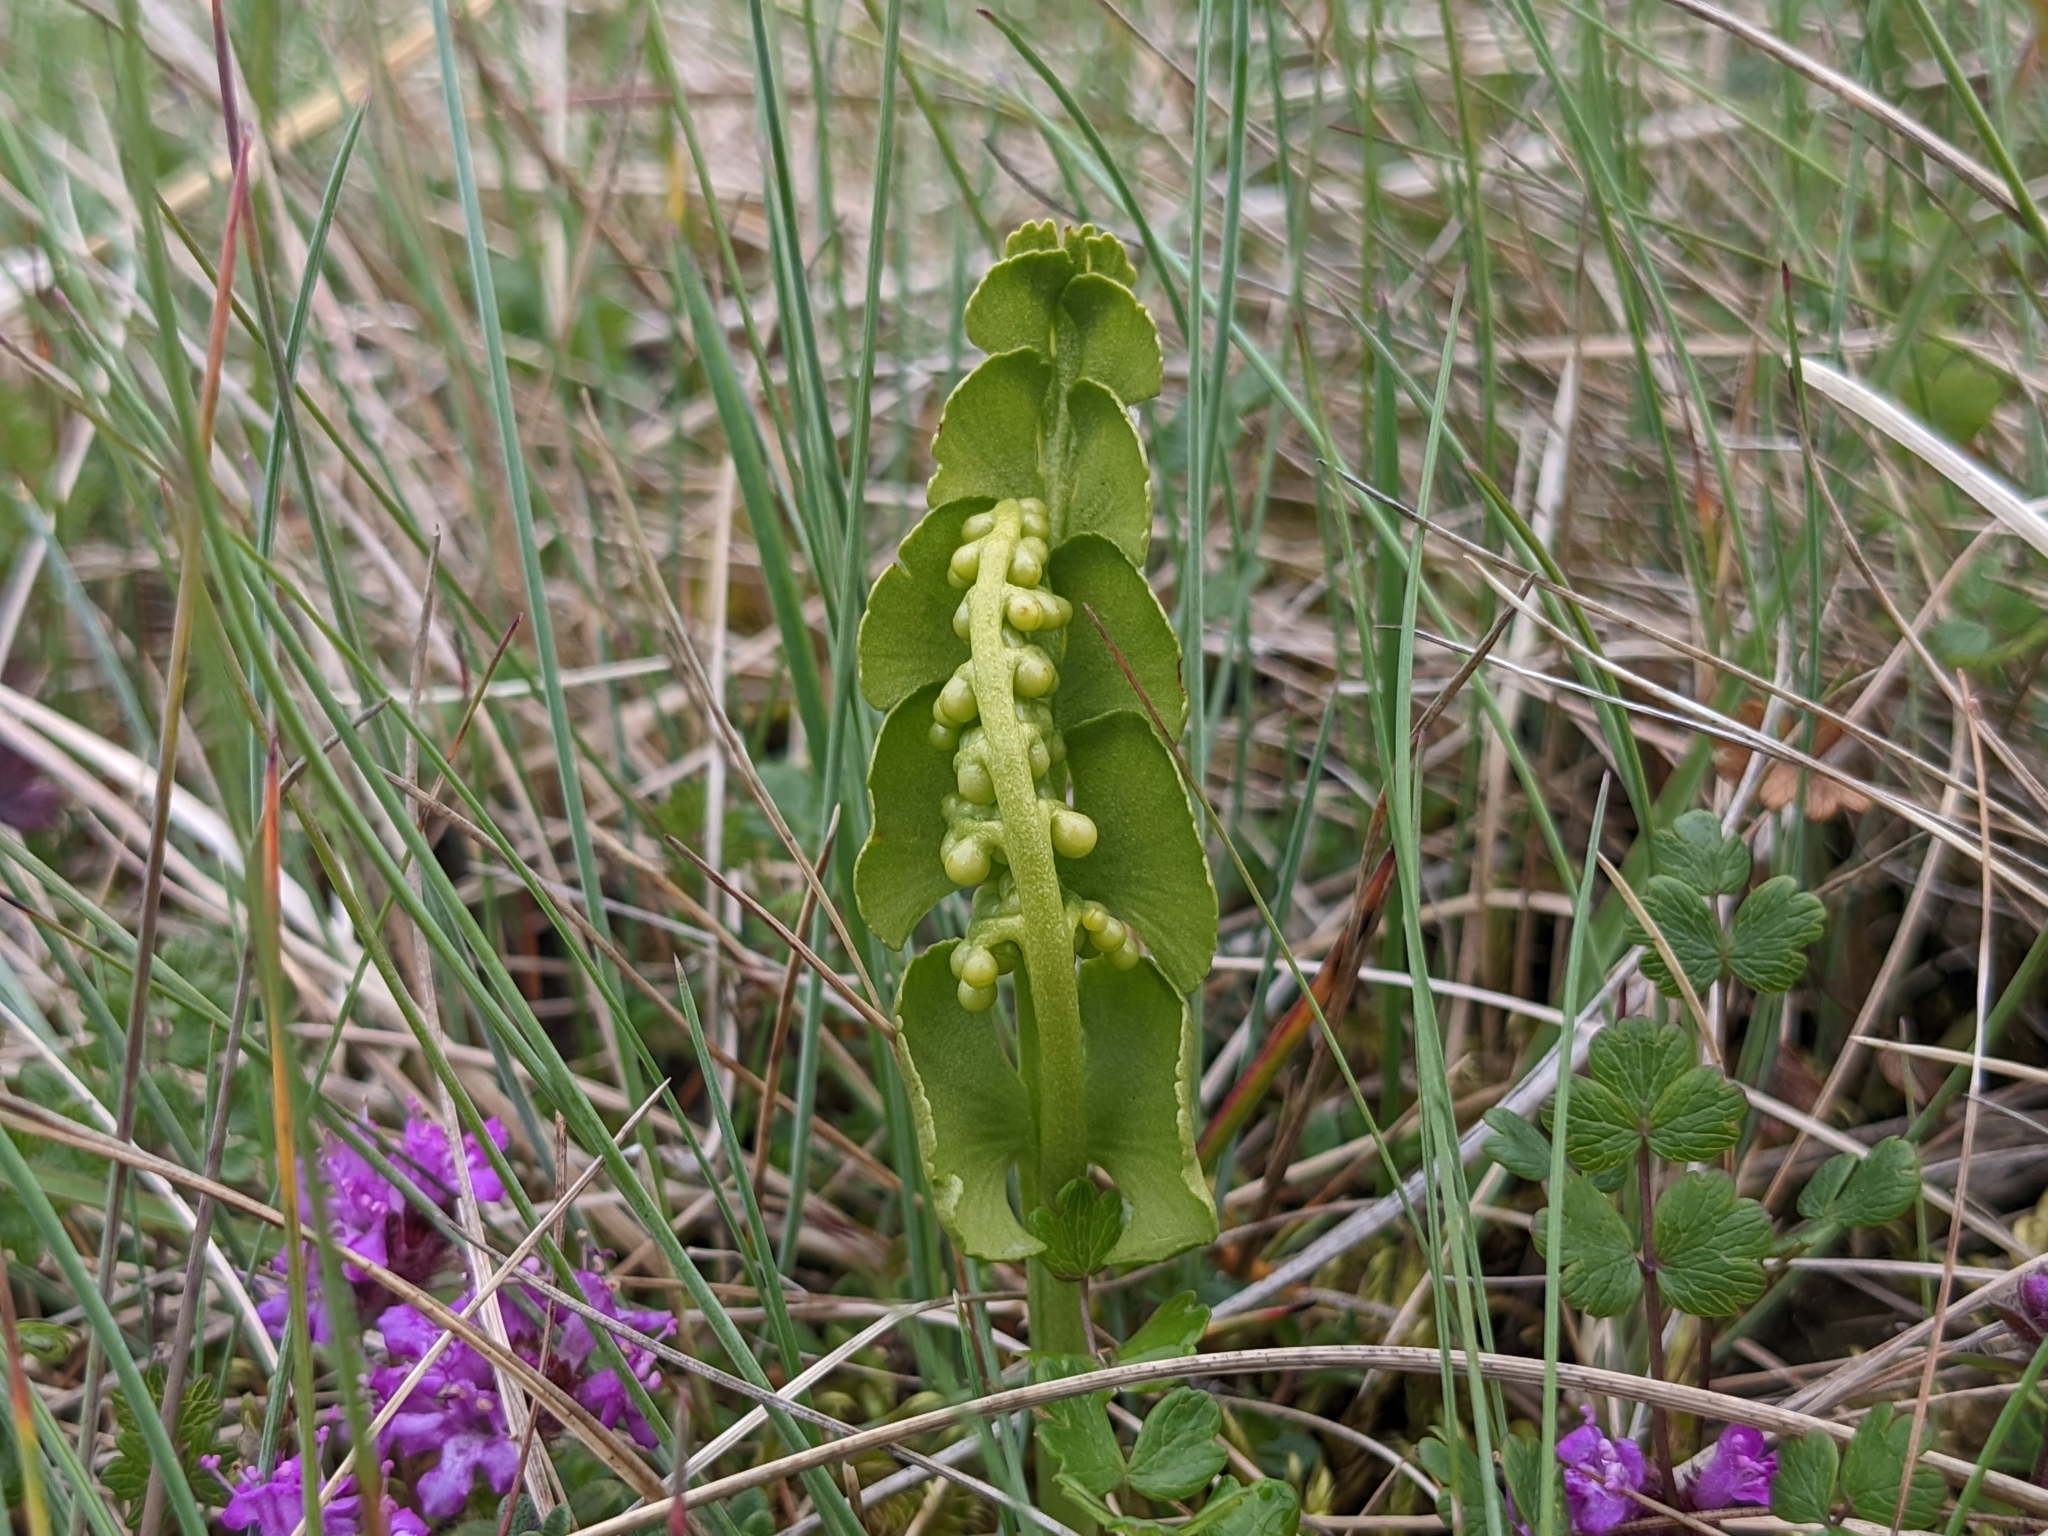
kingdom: Plantae
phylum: Tracheophyta
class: Polypodiopsida
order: Ophioglossales
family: Ophioglossaceae
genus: Botrychium
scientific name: Botrychium lunaria
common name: Moonwort
